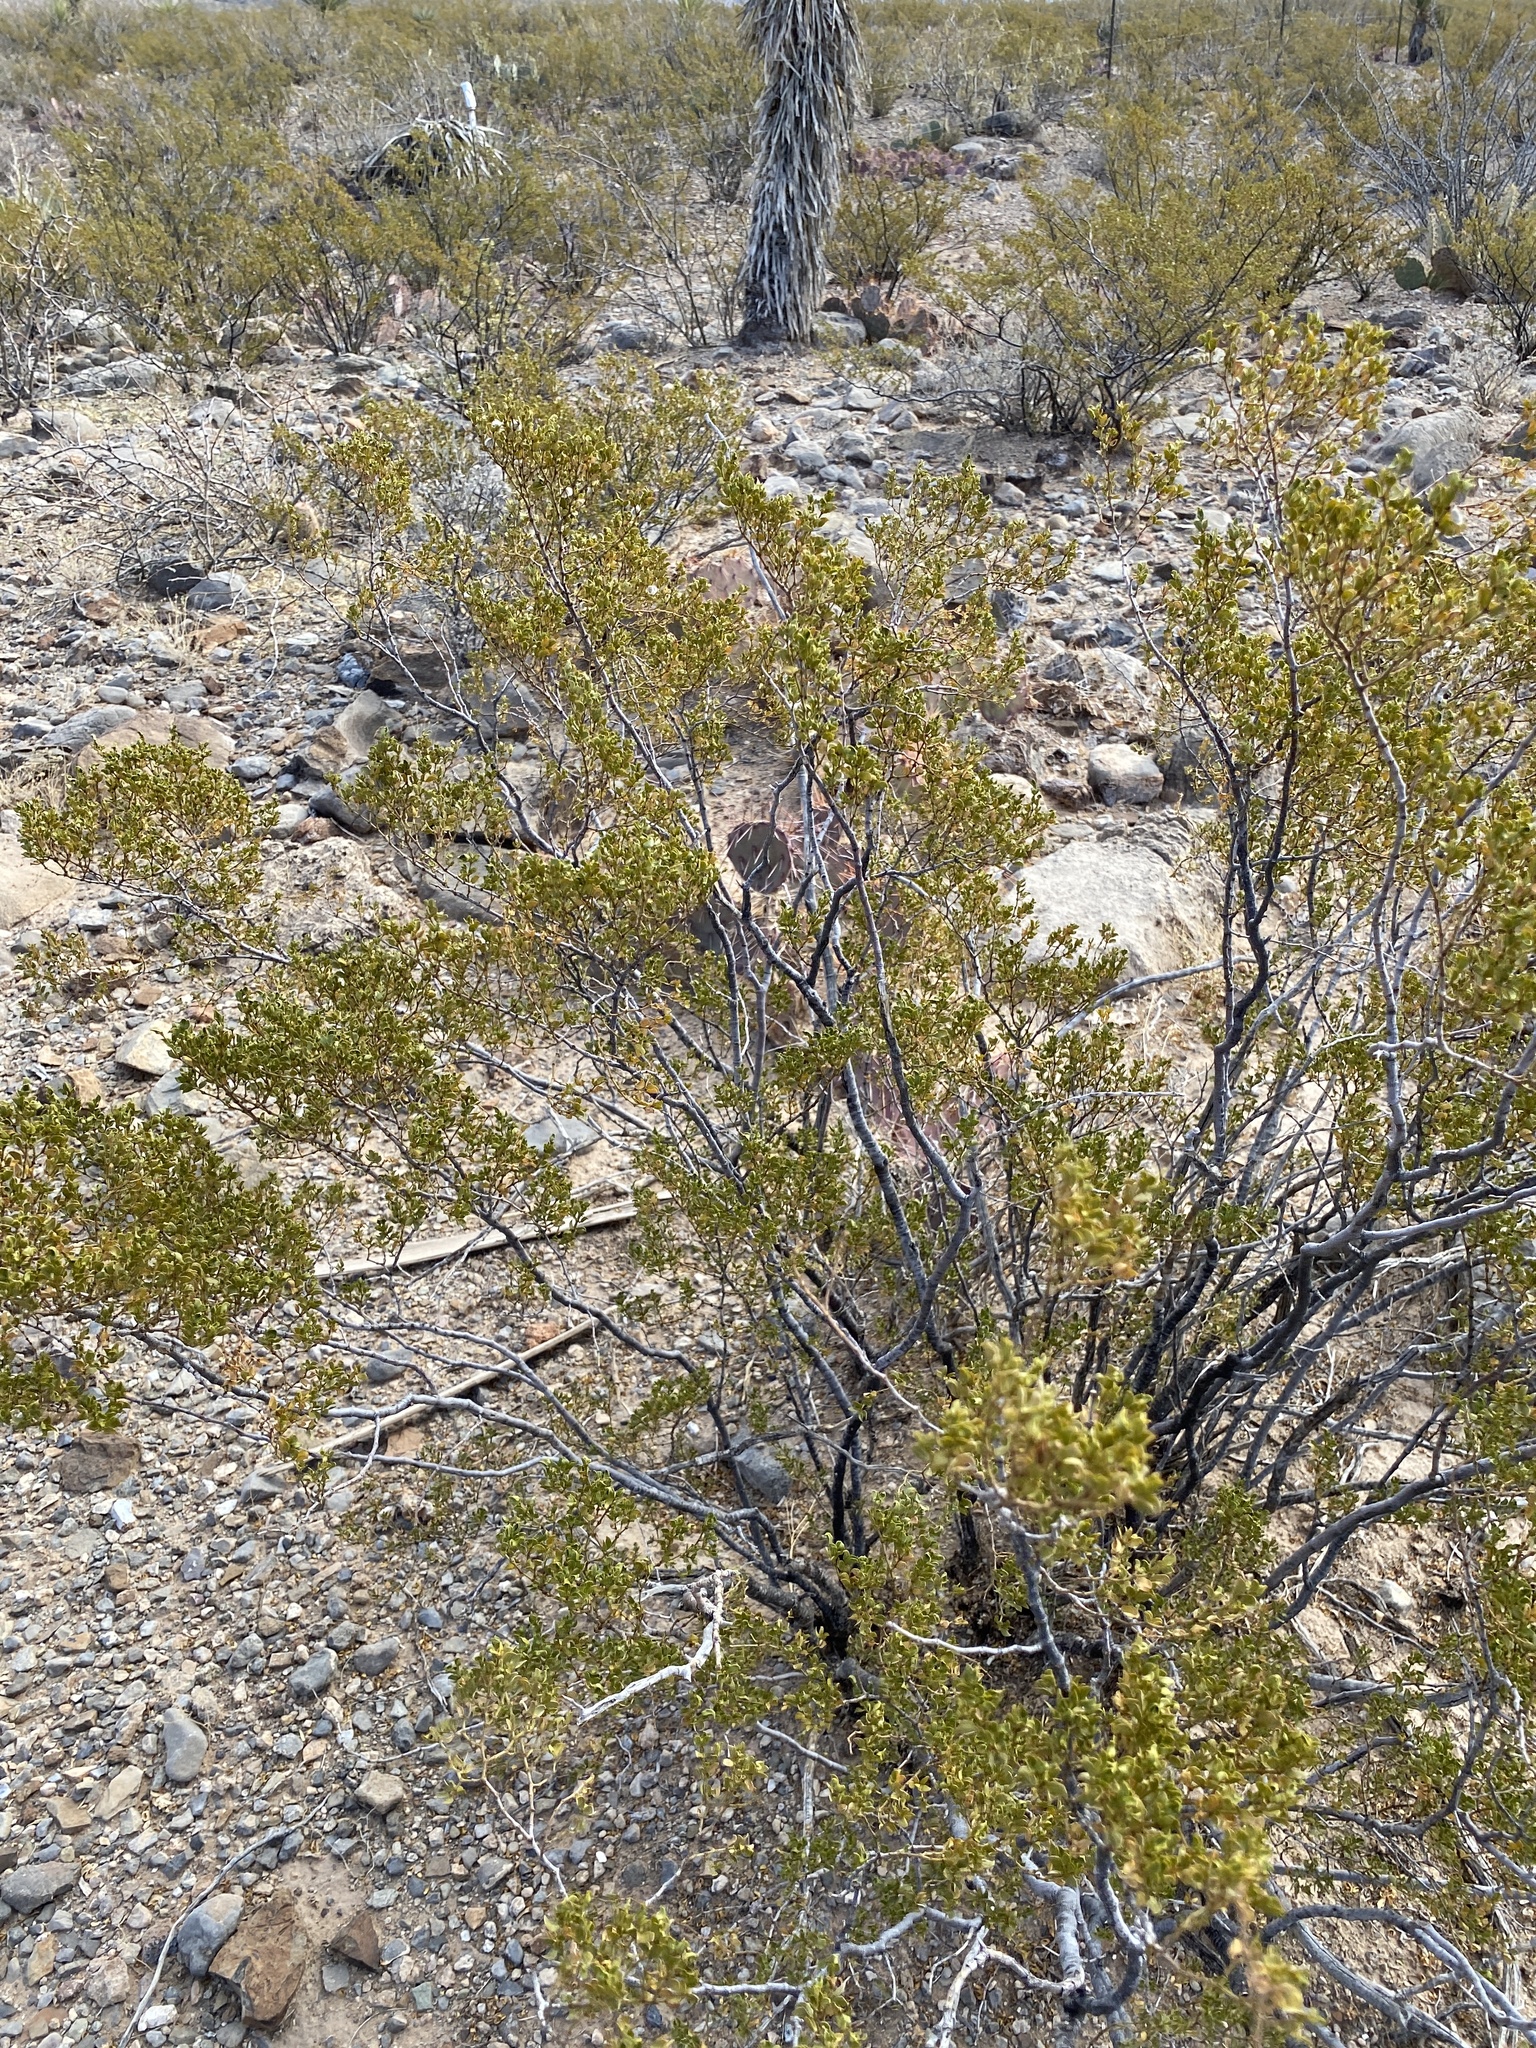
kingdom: Plantae
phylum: Tracheophyta
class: Magnoliopsida
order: Zygophyllales
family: Zygophyllaceae
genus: Larrea
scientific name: Larrea tridentata
